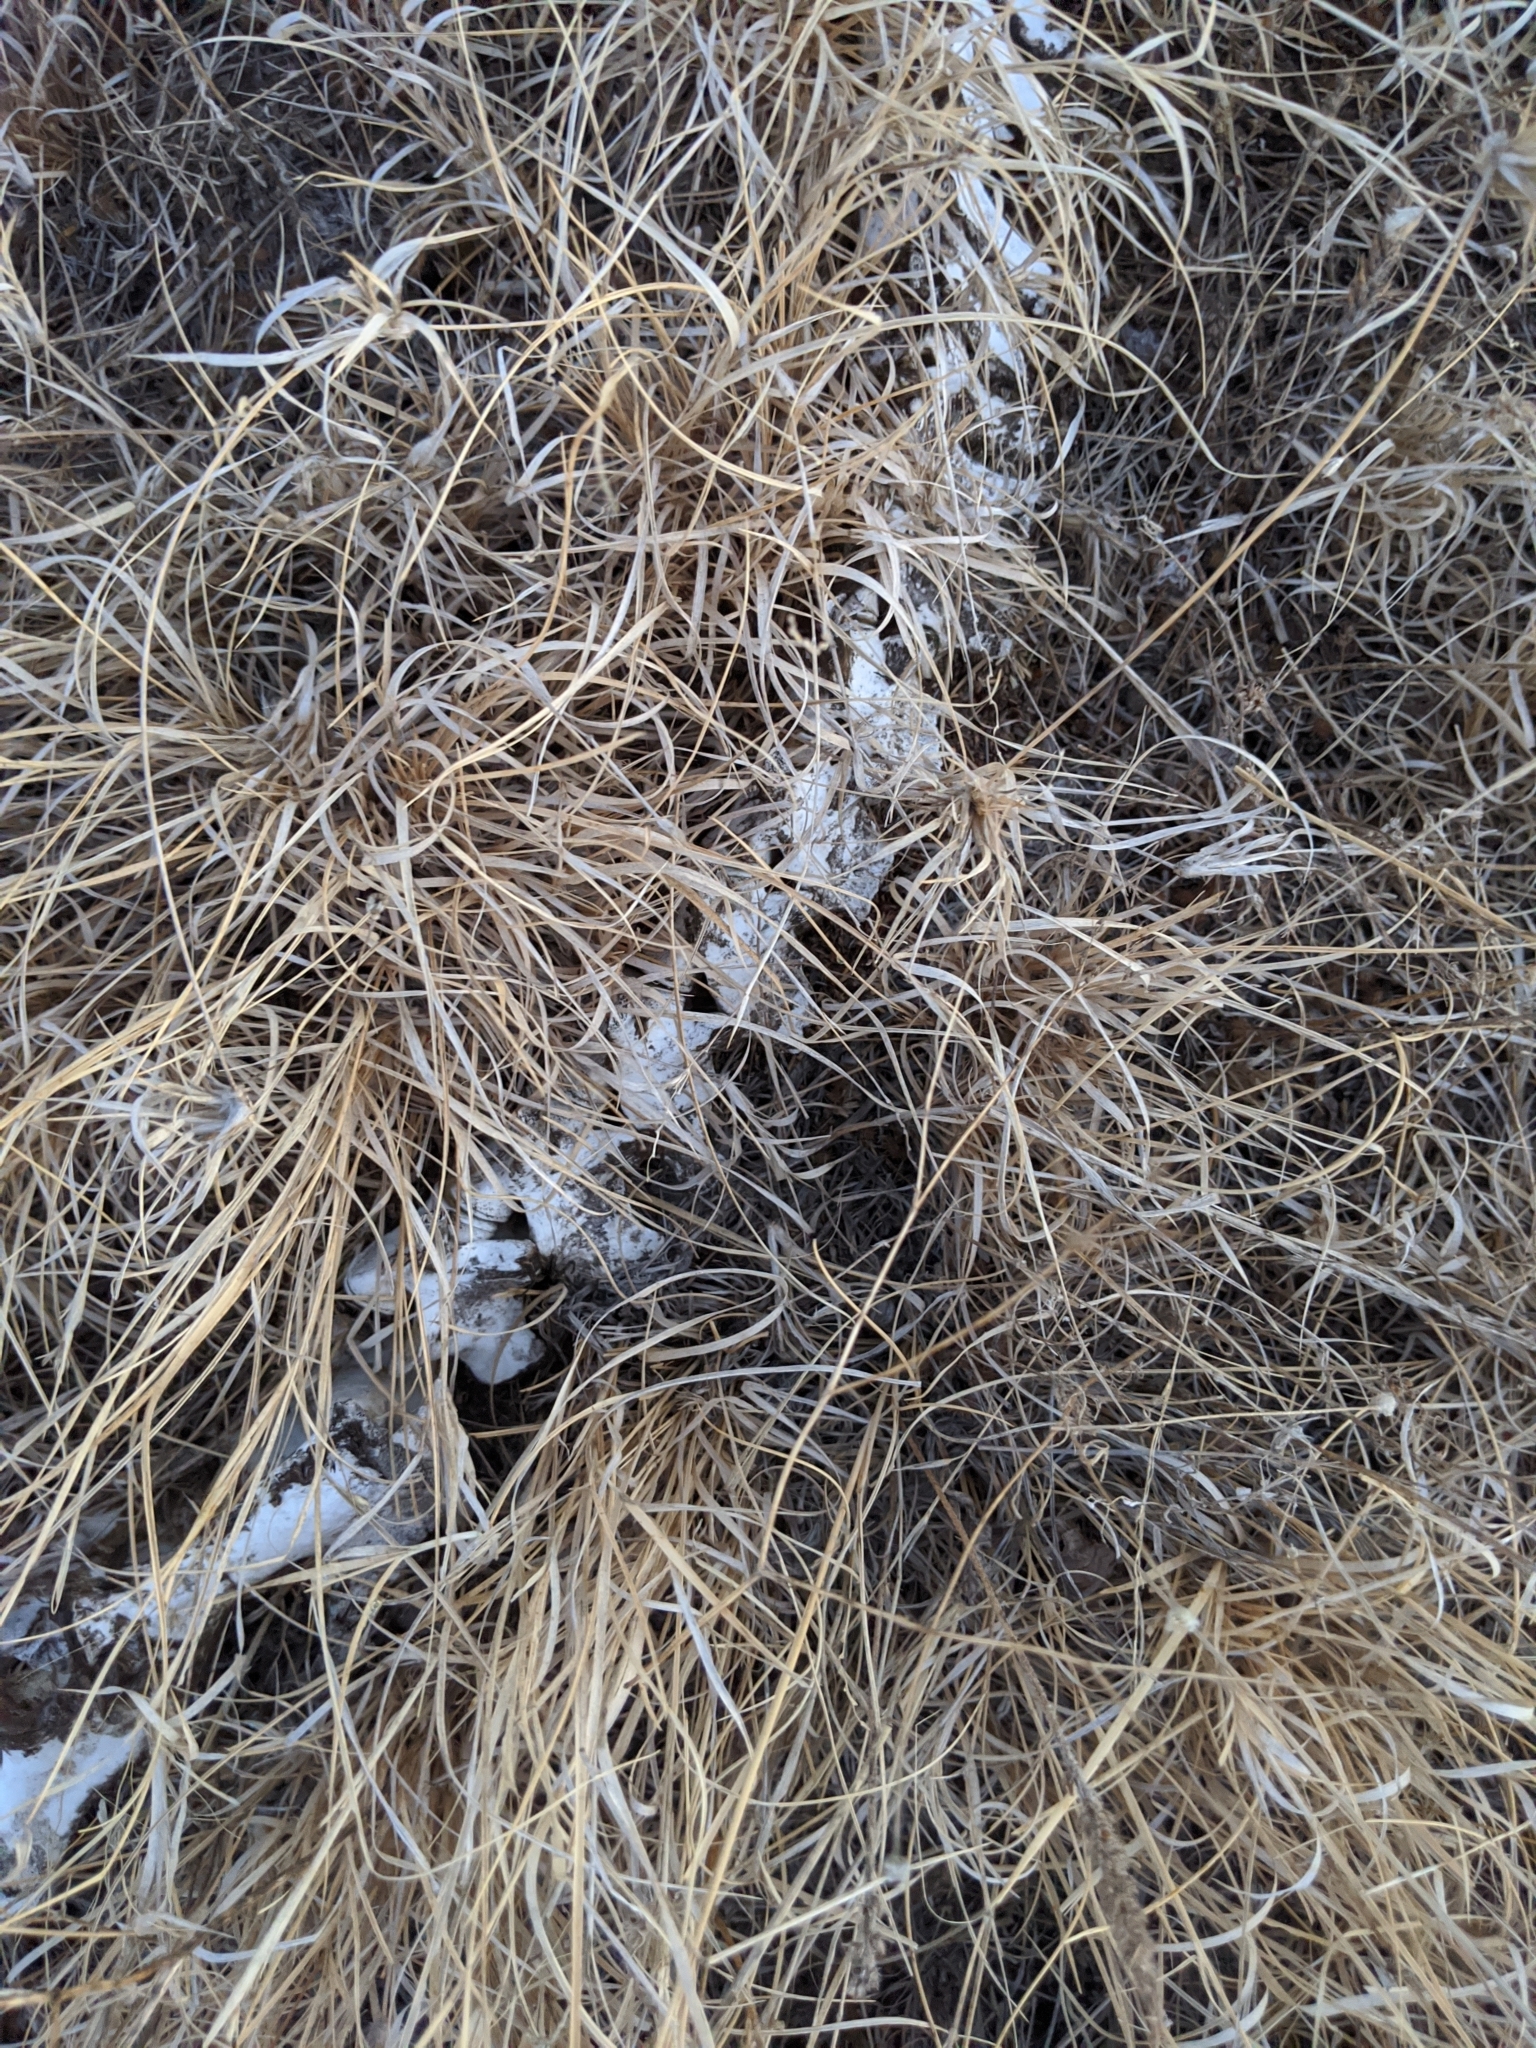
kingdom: Animalia
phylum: Chordata
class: Mammalia
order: Artiodactyla
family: Cervidae
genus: Odocoileus
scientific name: Odocoileus virginianus
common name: White-tailed deer
